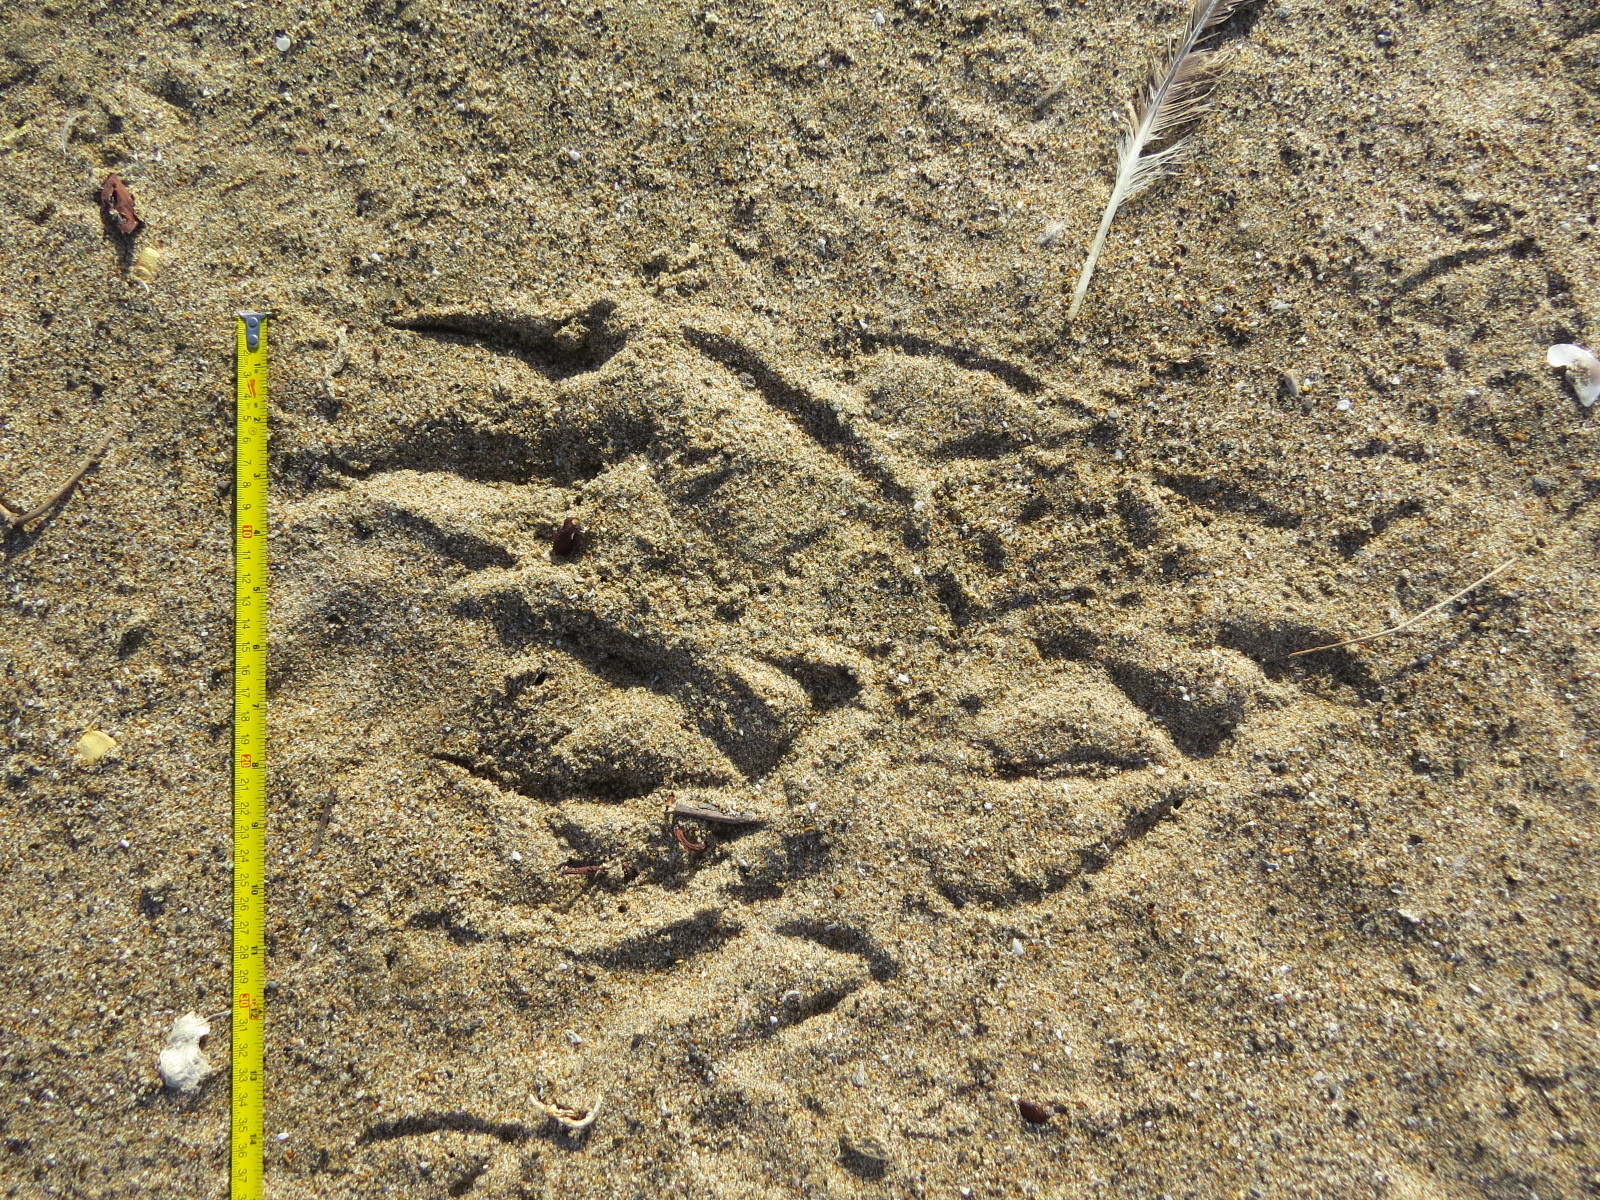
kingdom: Animalia
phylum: Chordata
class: Aves
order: Pelecaniformes
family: Pelecanidae
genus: Pelecanus
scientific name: Pelecanus occidentalis
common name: Brown pelican
